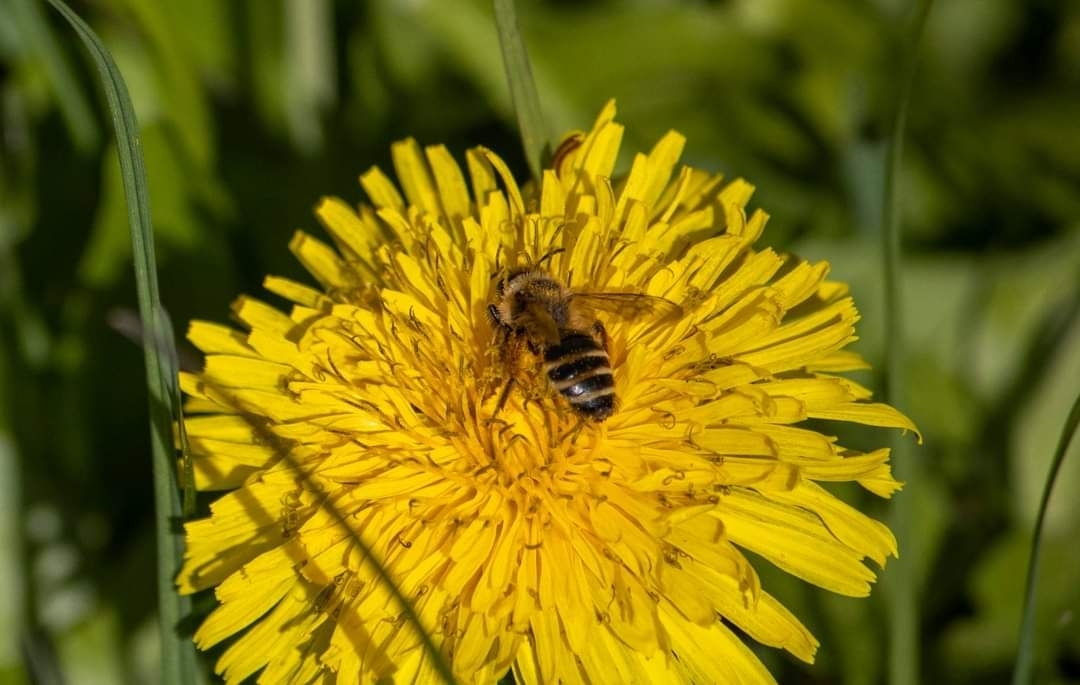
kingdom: Animalia
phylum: Arthropoda
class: Insecta
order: Hymenoptera
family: Andrenidae
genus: Andrena
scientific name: Andrena flavipes
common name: Yellow-legged mining bee
